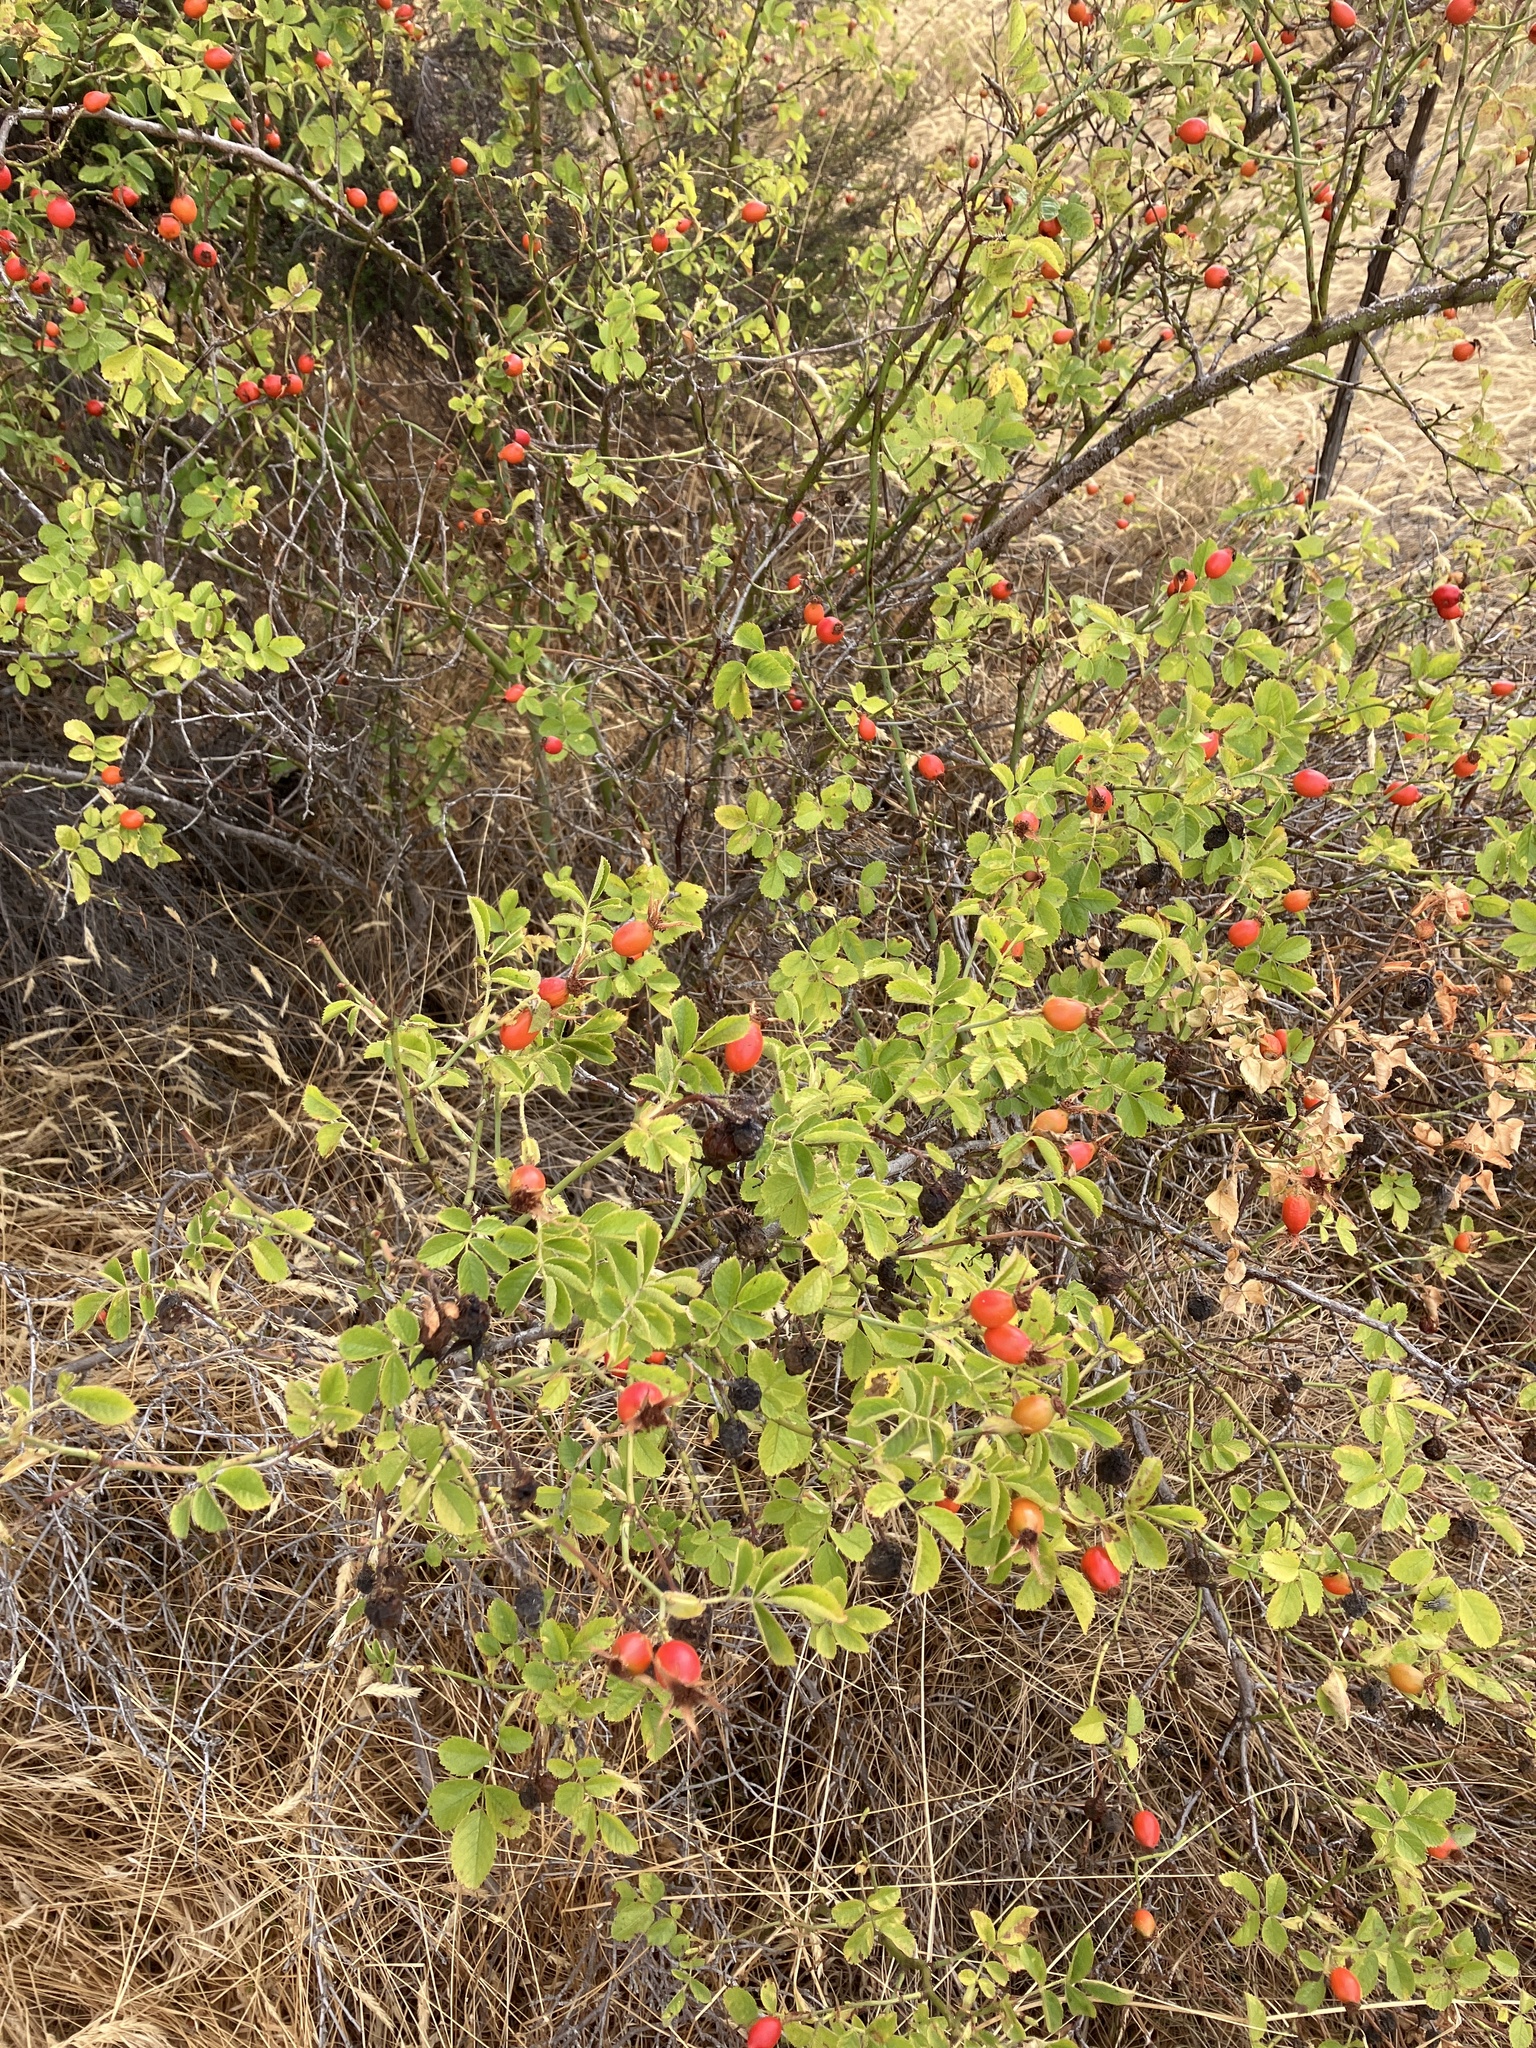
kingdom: Plantae
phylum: Tracheophyta
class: Magnoliopsida
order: Rosales
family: Rosaceae
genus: Rosa
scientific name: Rosa rubiginosa
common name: Sweet-briar
